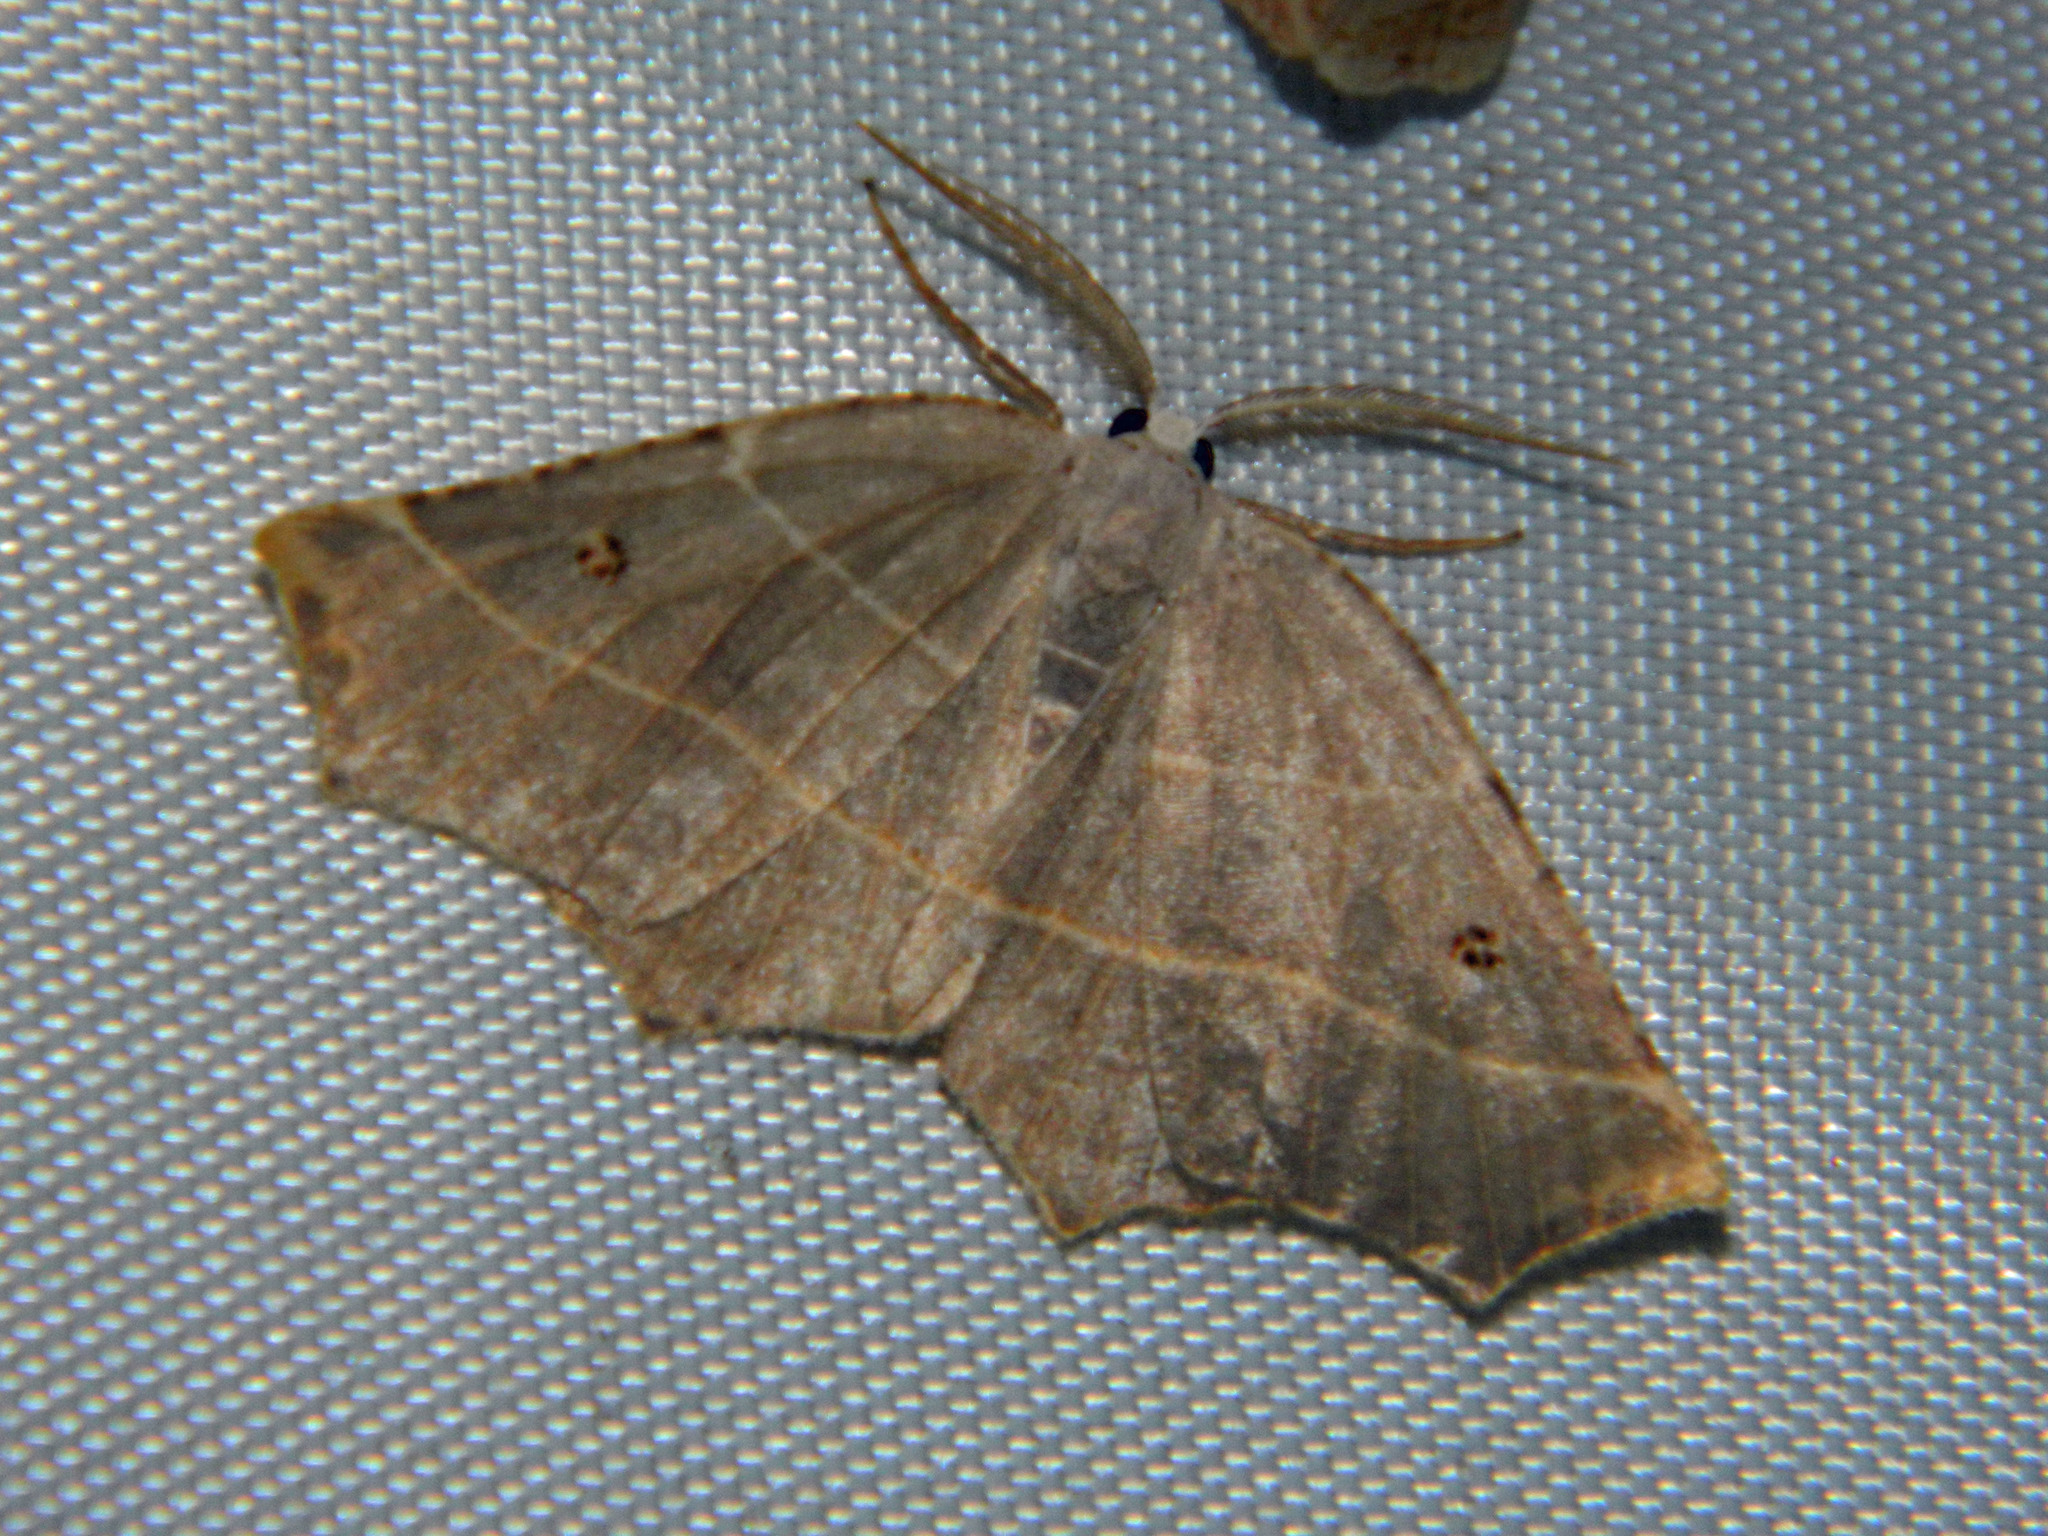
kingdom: Animalia
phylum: Arthropoda
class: Insecta
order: Lepidoptera
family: Geometridae
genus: Metanema
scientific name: Metanema inatomaria
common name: Pale metanema
